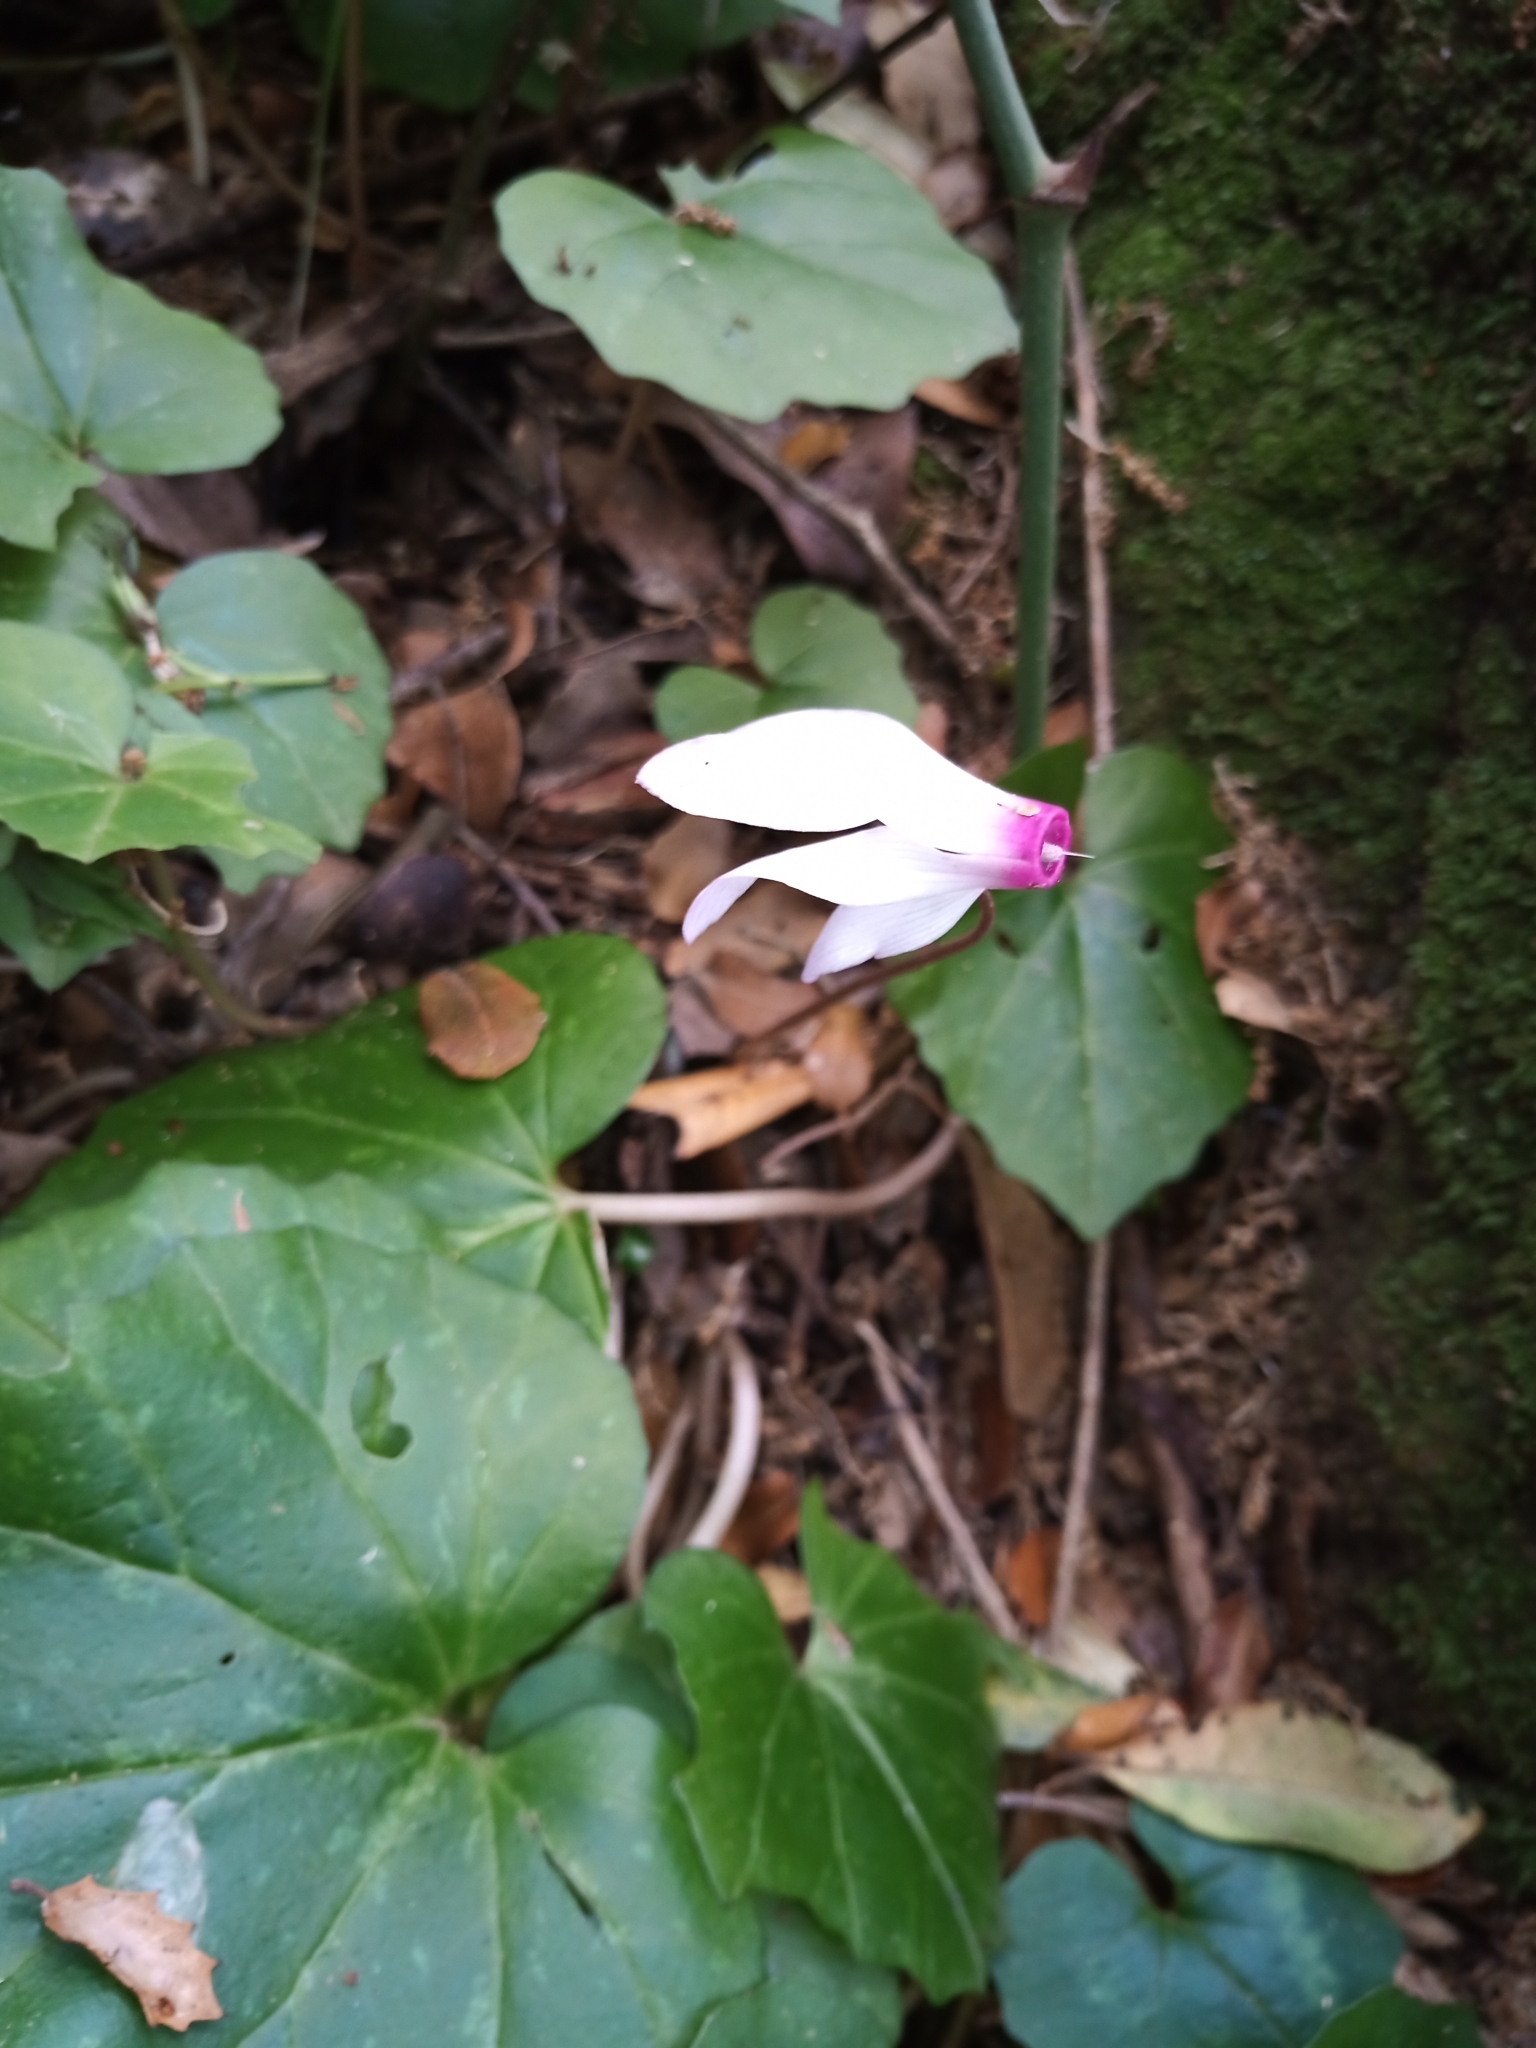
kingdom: Plantae
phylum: Tracheophyta
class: Magnoliopsida
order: Ericales
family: Primulaceae
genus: Cyclamen
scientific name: Cyclamen repandum
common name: Spring sowbread
